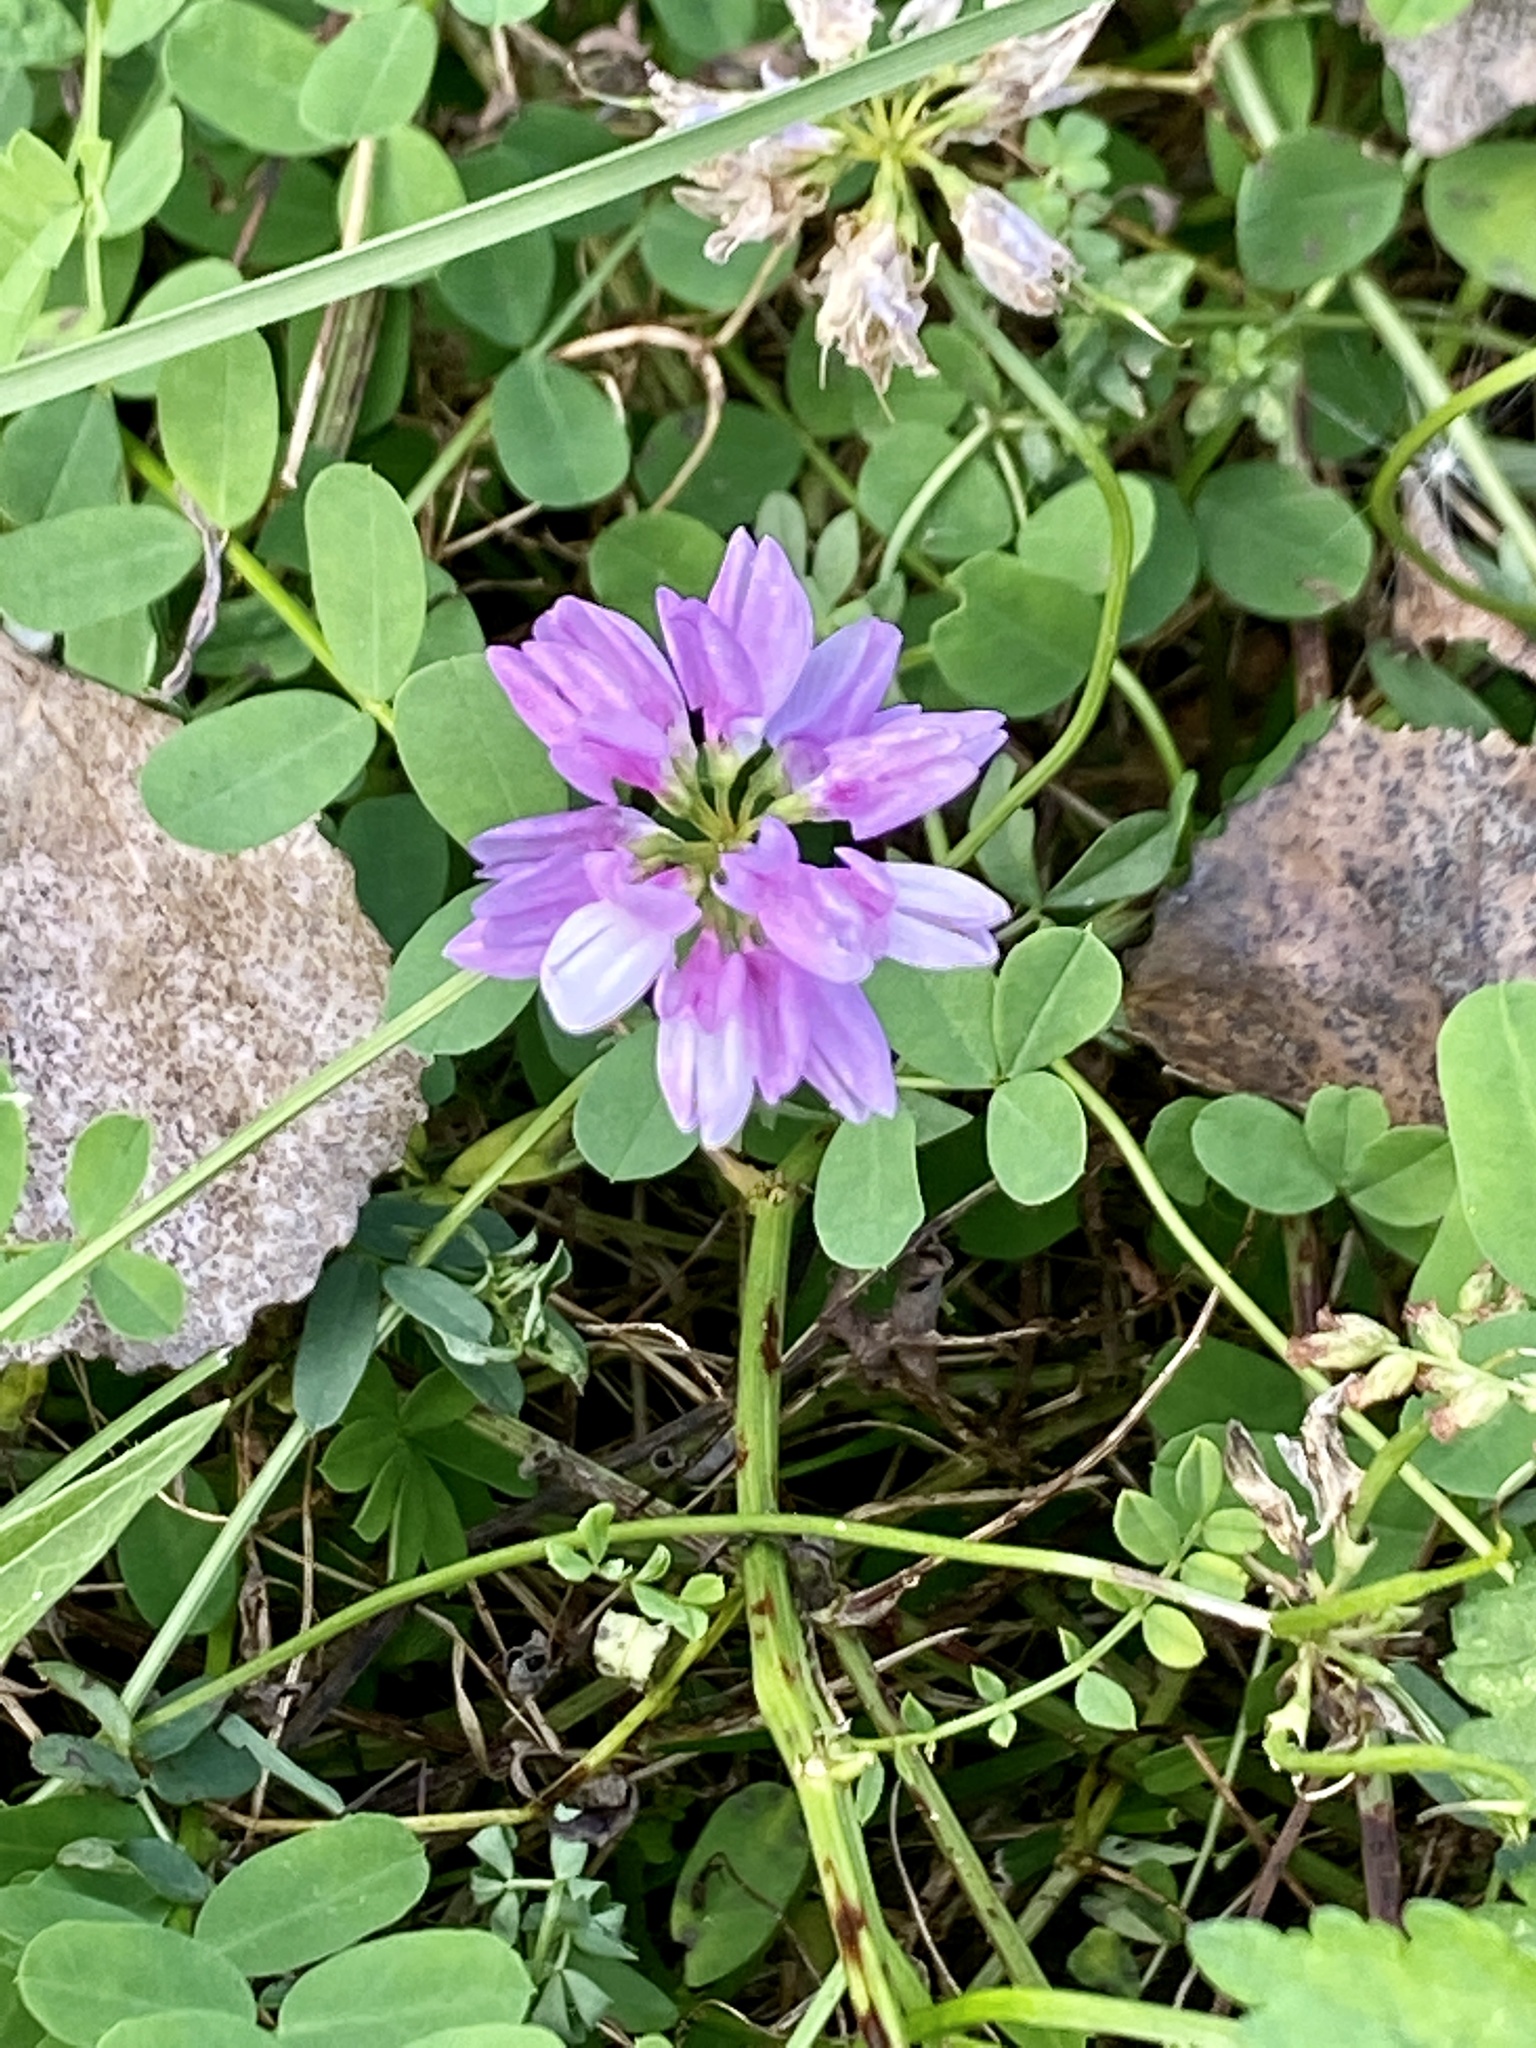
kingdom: Plantae
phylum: Tracheophyta
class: Magnoliopsida
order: Fabales
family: Fabaceae
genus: Coronilla
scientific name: Coronilla varia
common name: Crownvetch
